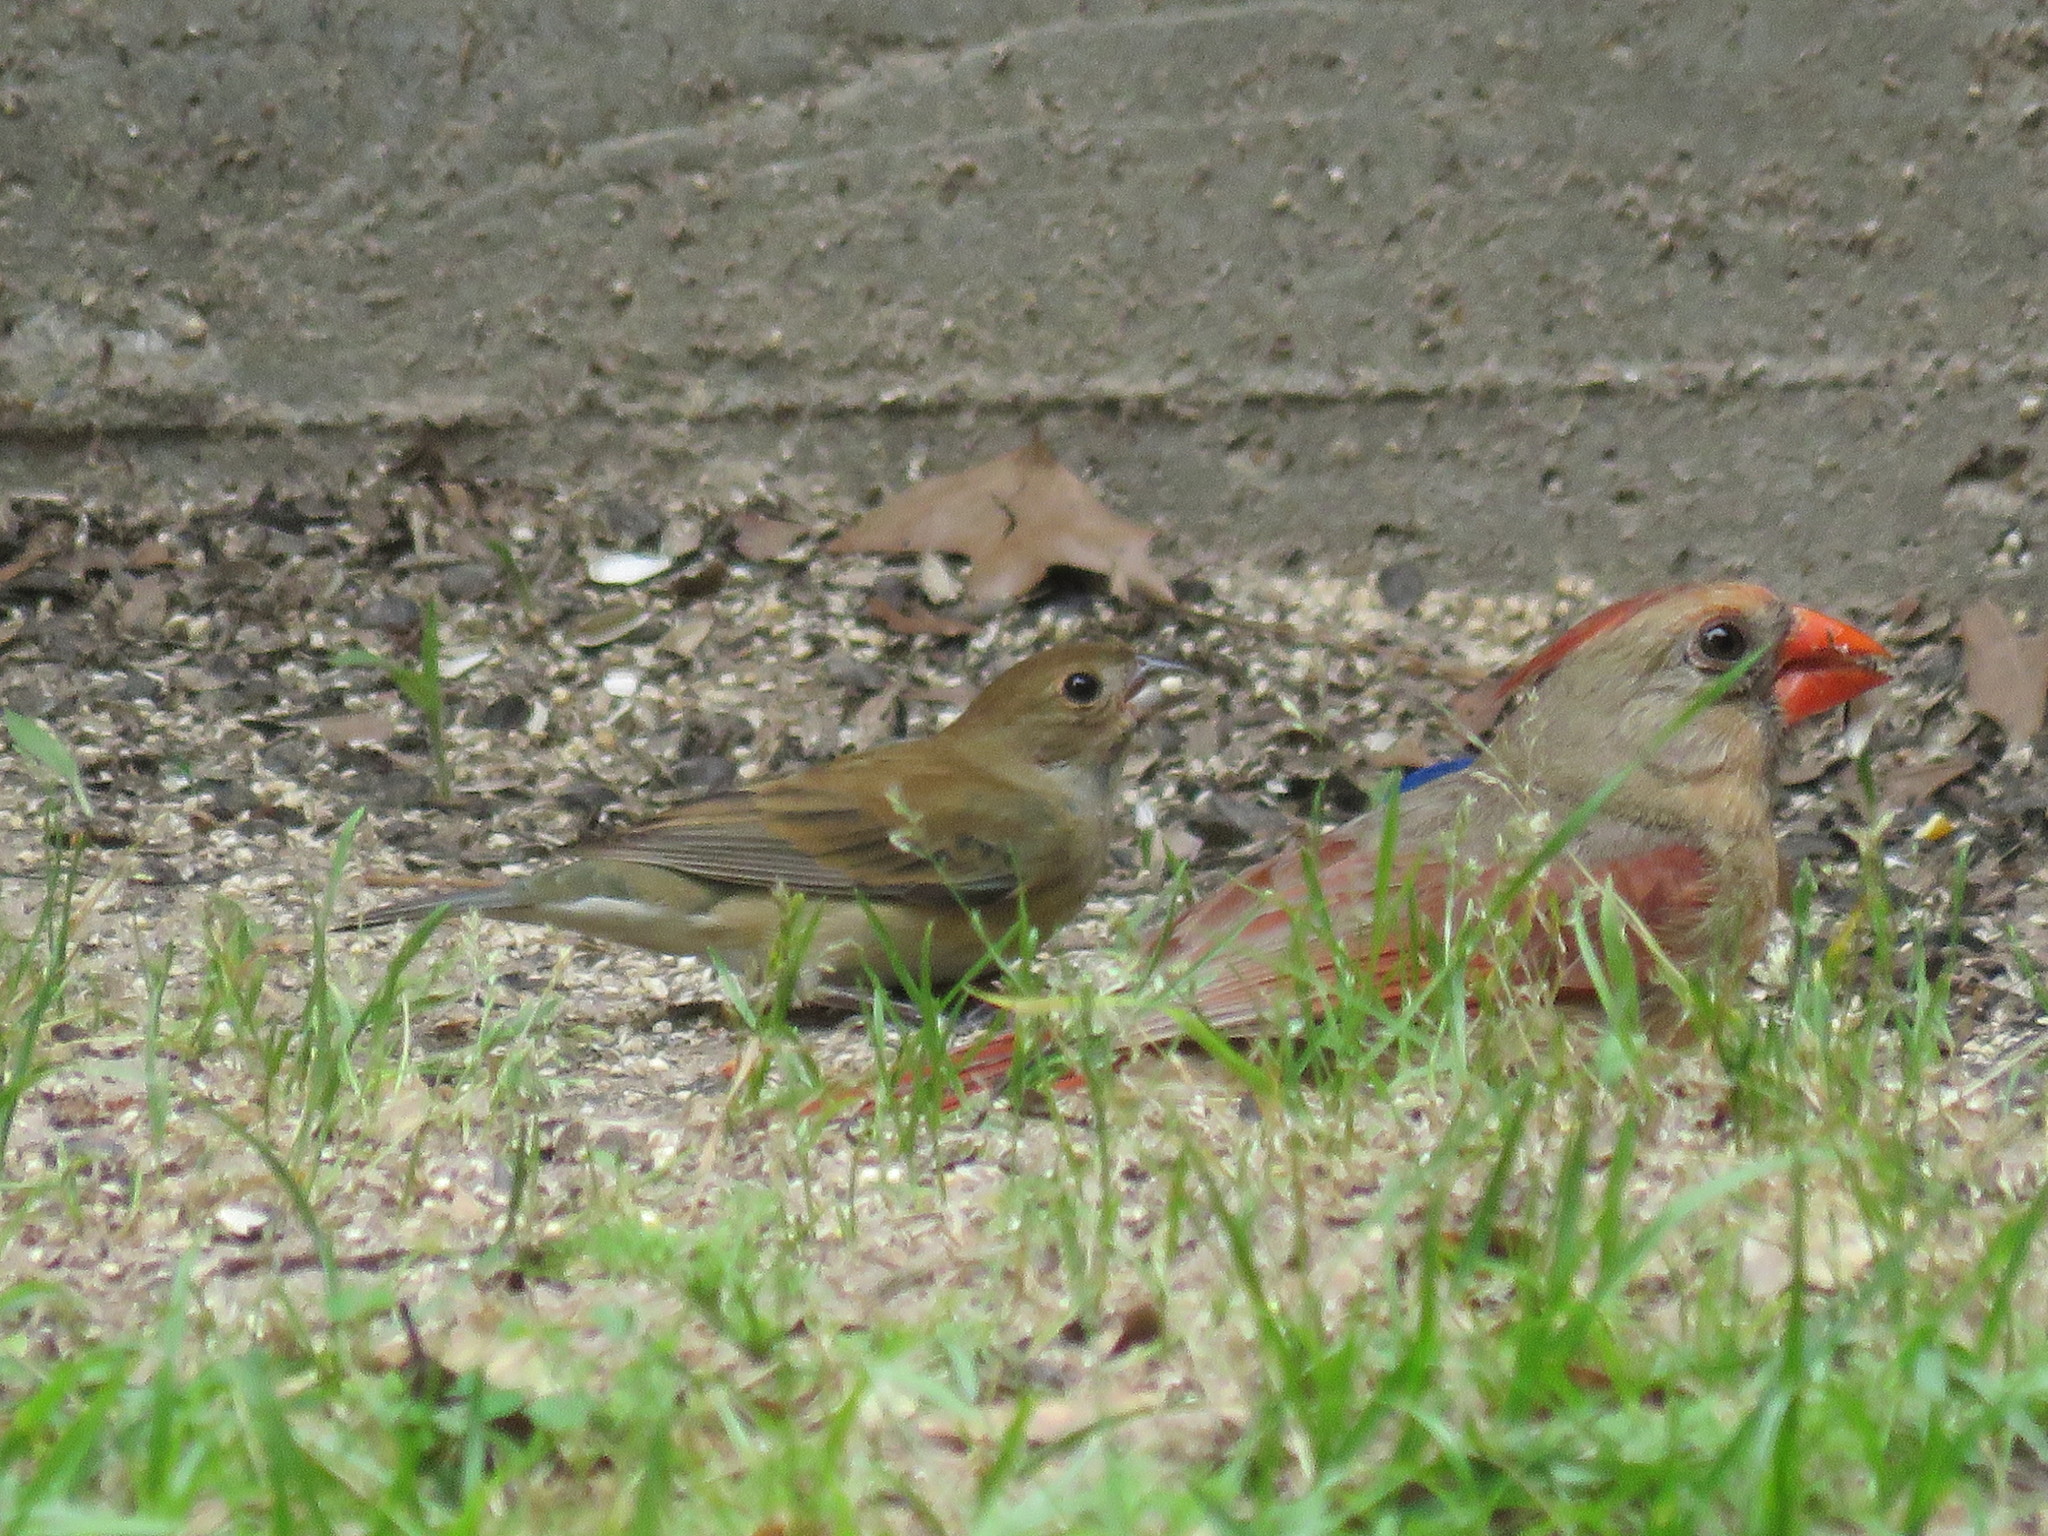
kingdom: Animalia
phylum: Chordata
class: Aves
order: Passeriformes
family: Cardinalidae
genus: Passerina
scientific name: Passerina cyanea
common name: Indigo bunting
